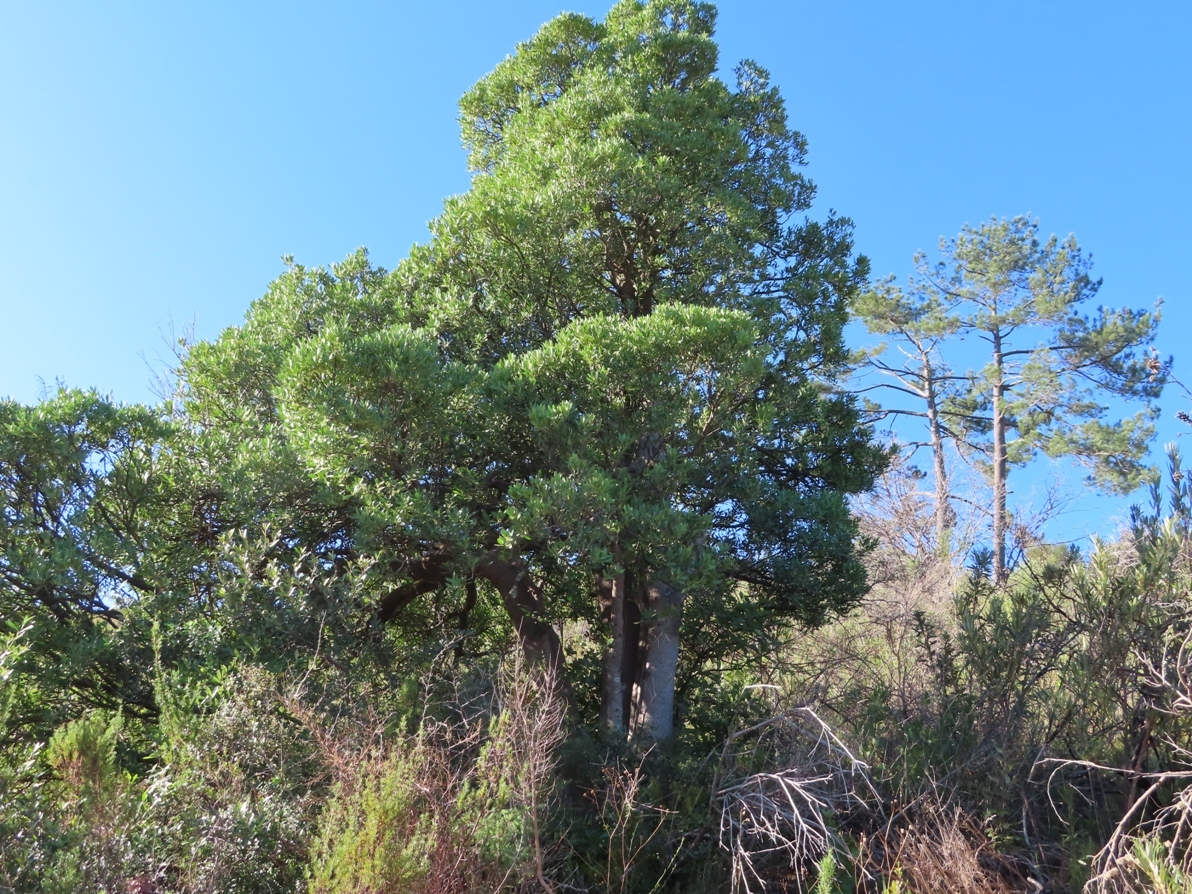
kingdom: Plantae
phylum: Tracheophyta
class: Magnoliopsida
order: Celastrales
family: Celastraceae
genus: Gymnosporia
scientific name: Gymnosporia laurina
